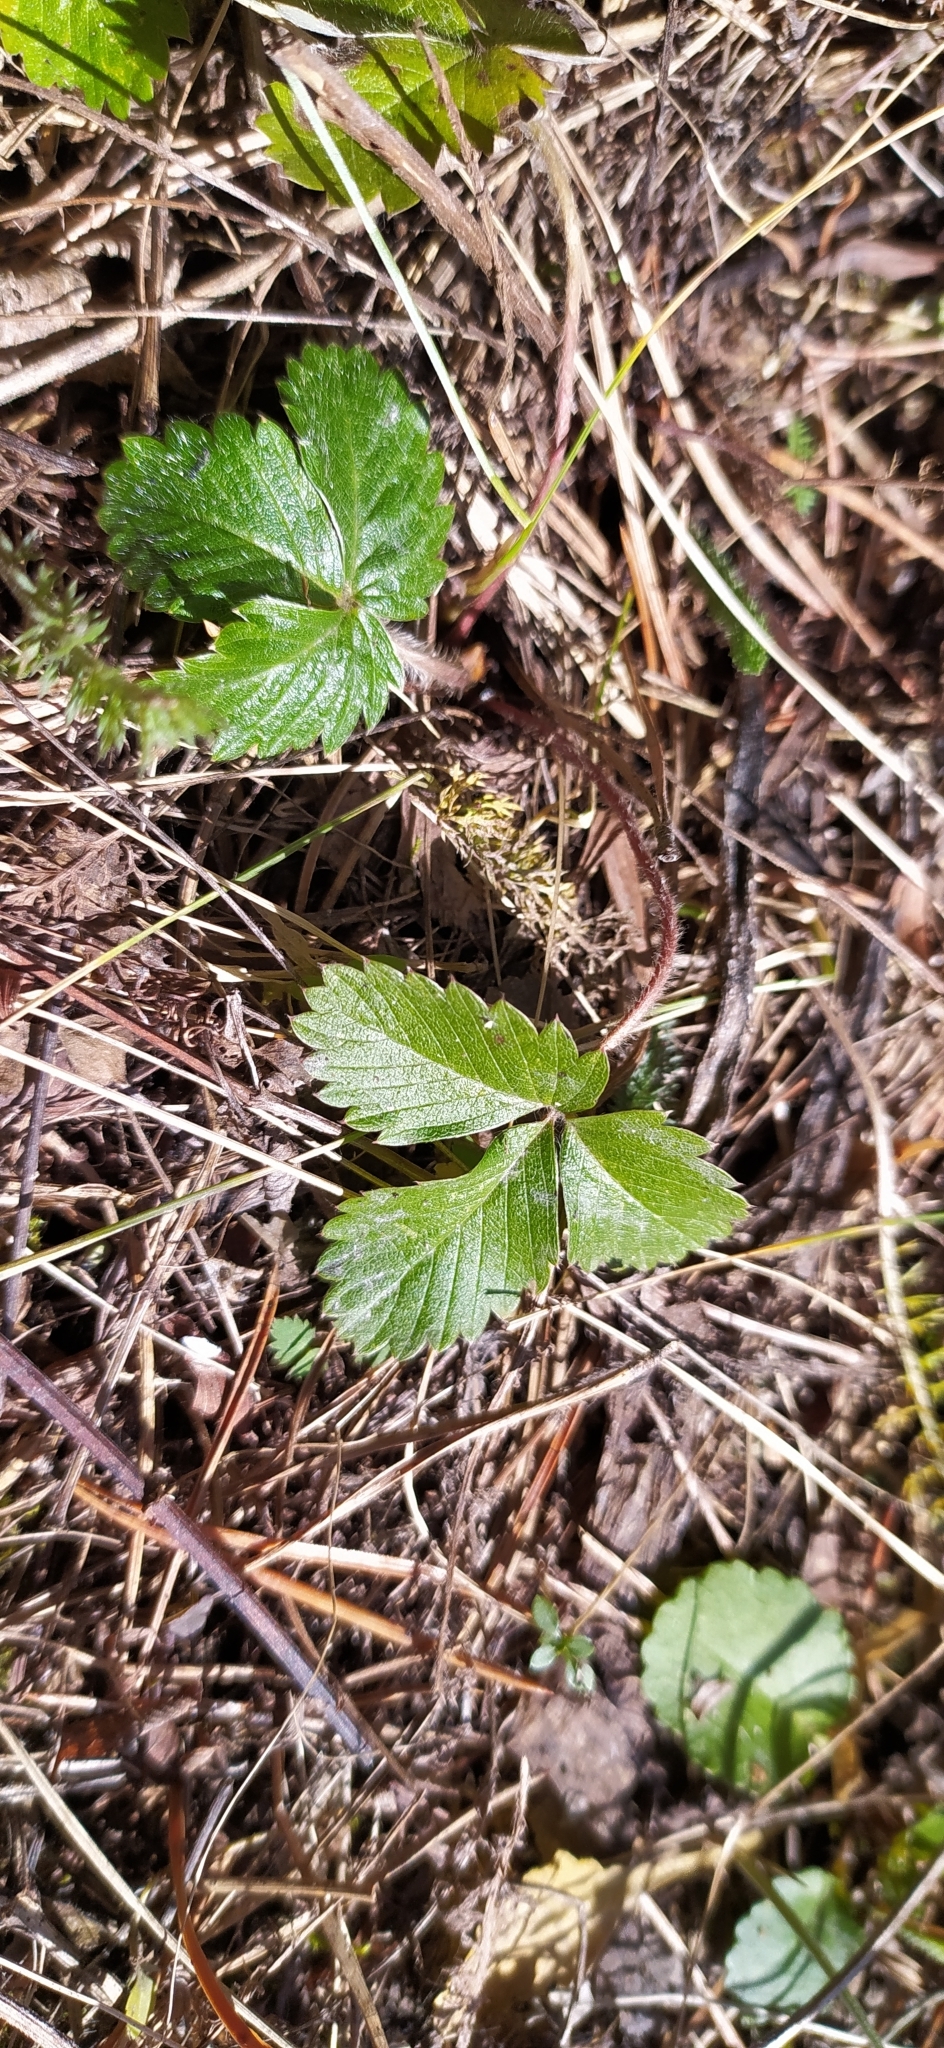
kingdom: Plantae
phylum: Tracheophyta
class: Magnoliopsida
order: Rosales
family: Rosaceae
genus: Fragaria
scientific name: Fragaria vesca
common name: Wild strawberry
